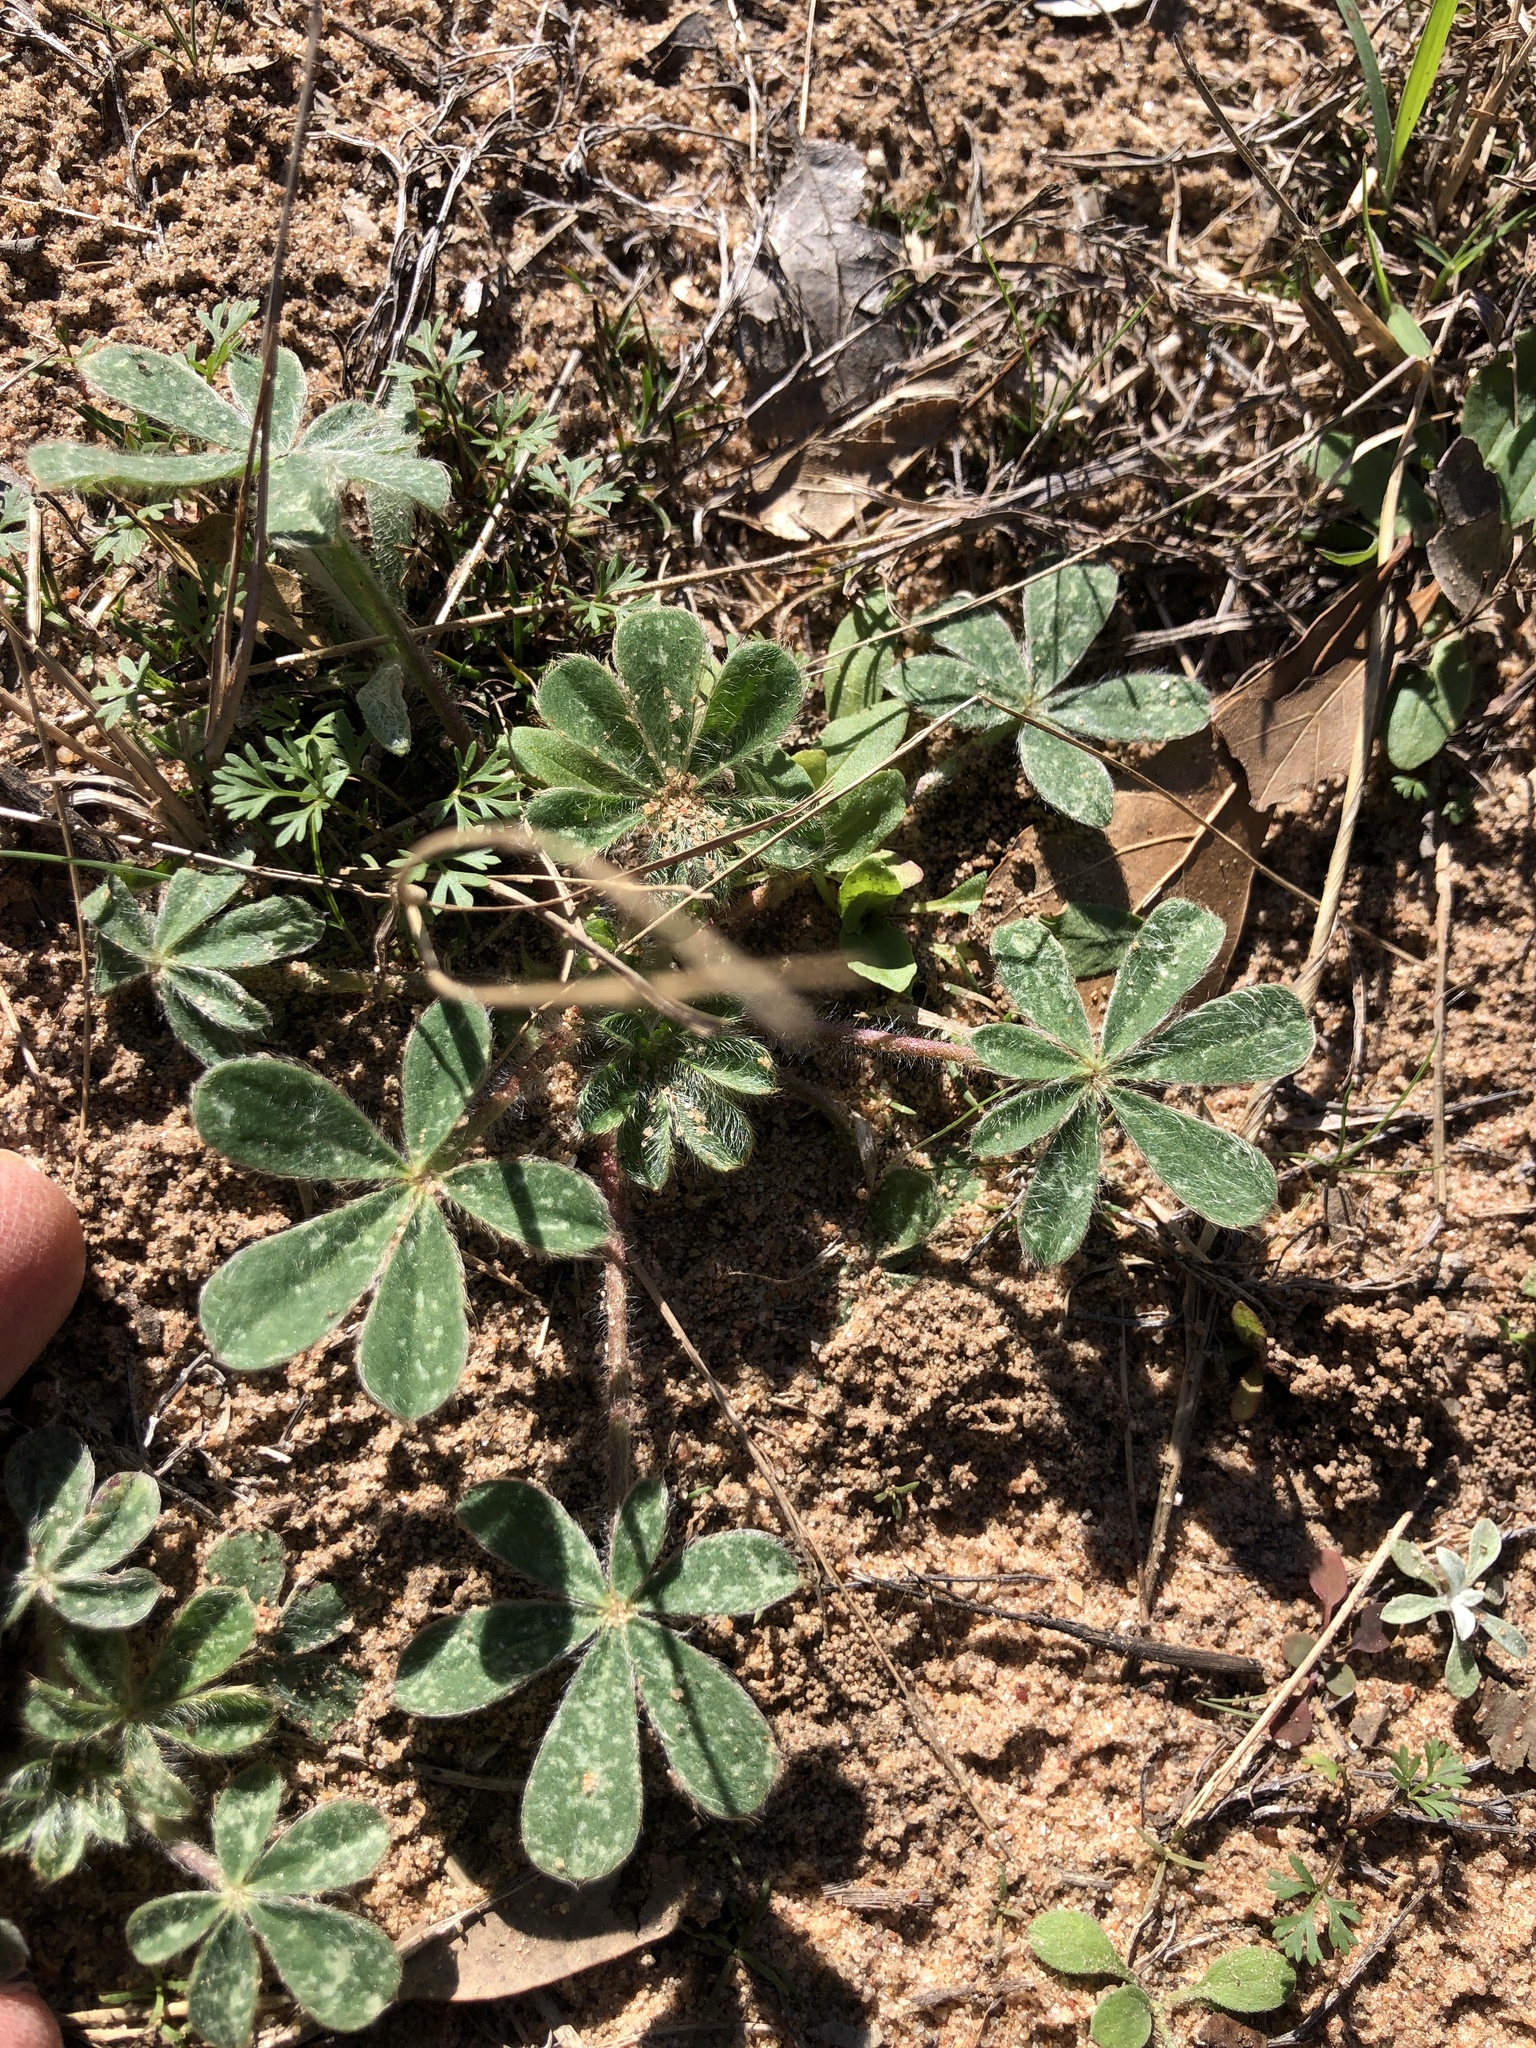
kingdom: Plantae
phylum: Tracheophyta
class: Magnoliopsida
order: Fabales
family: Fabaceae
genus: Lupinus
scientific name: Lupinus subcarnosus
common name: Texas bluebonnet
